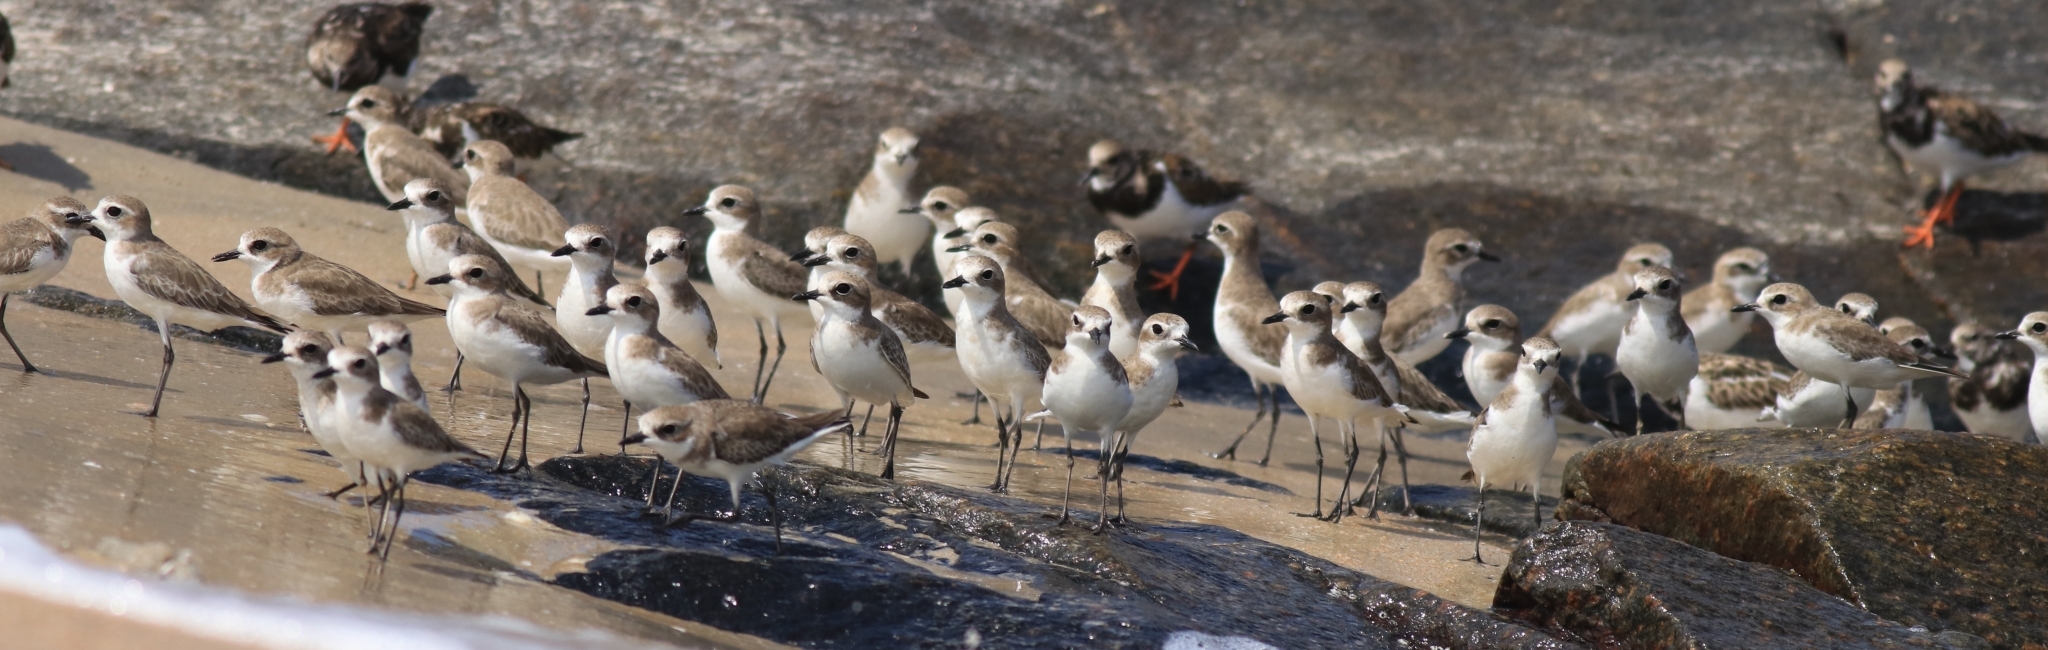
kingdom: Animalia
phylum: Chordata
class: Aves
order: Charadriiformes
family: Charadriidae
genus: Anarhynchus
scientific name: Anarhynchus
